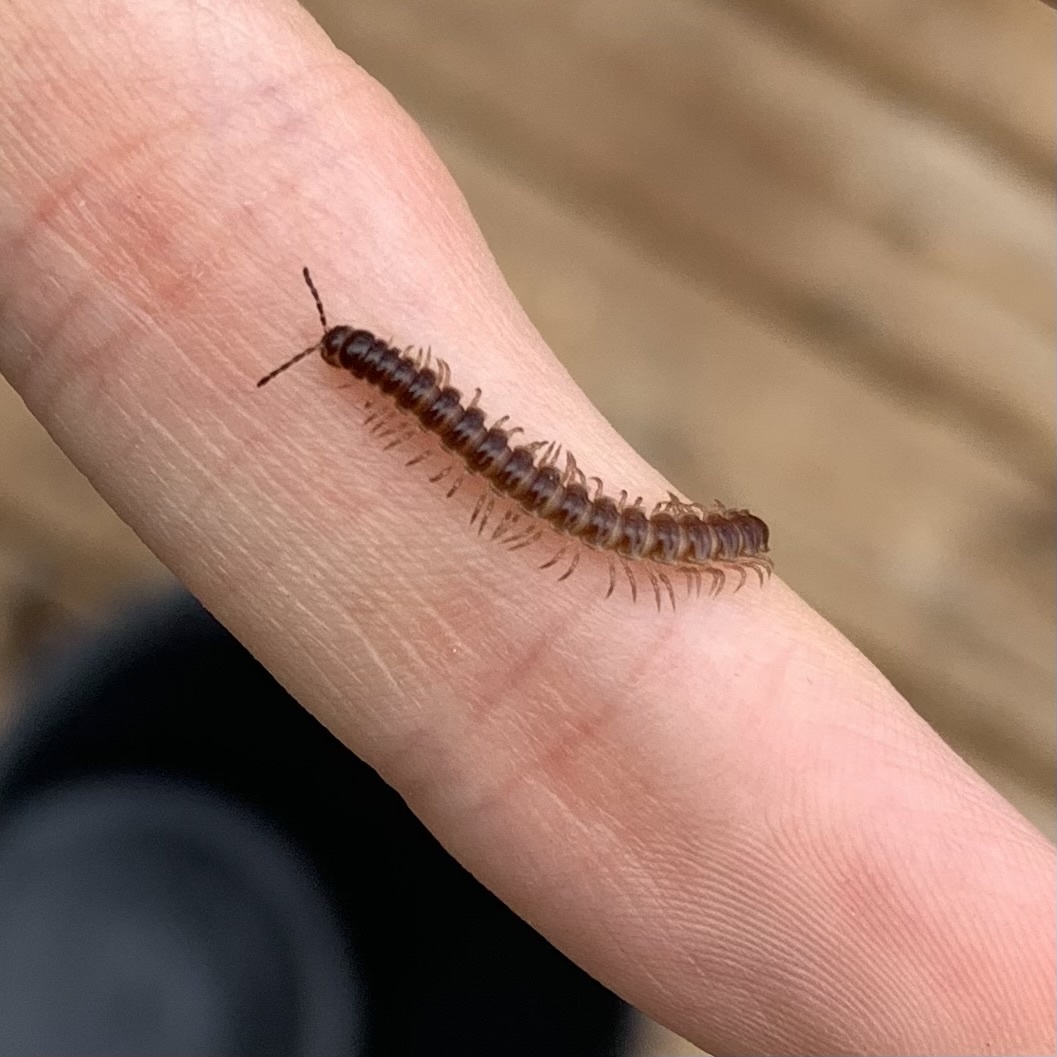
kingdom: Animalia
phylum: Arthropoda
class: Diplopoda
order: Polydesmida
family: Paradoxosomatidae
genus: Oxidus
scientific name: Oxidus gracilis
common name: Greenhouse millipede
